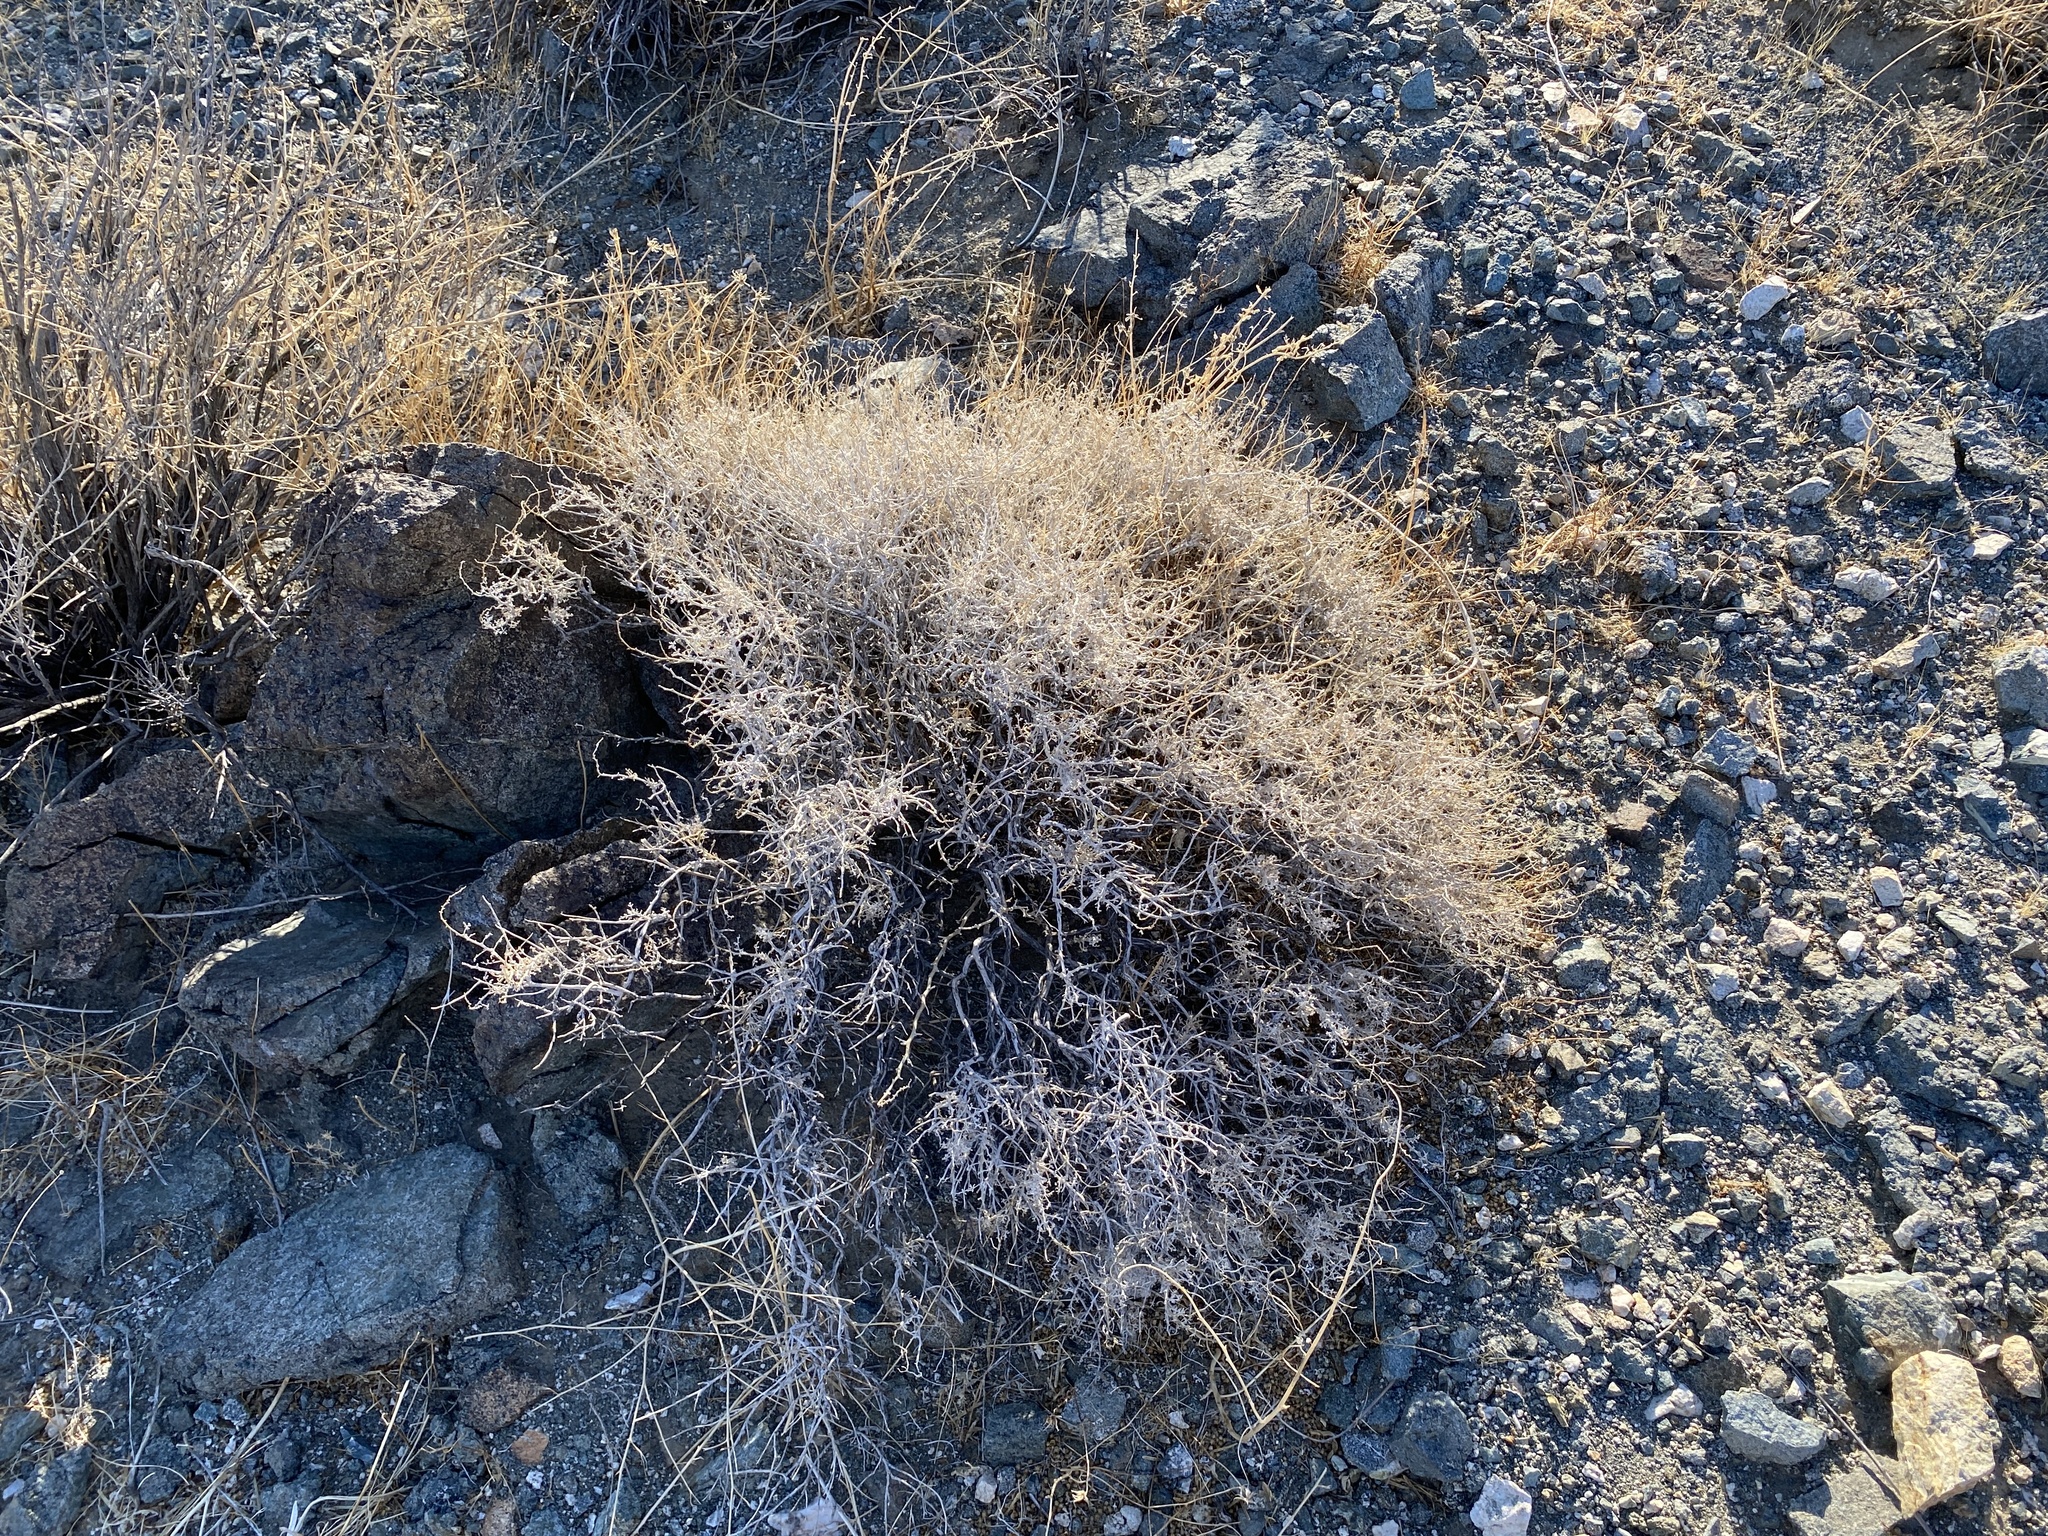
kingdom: Plantae
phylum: Tracheophyta
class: Magnoliopsida
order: Asterales
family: Asteraceae
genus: Ambrosia
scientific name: Ambrosia dumosa
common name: Bur-sage
